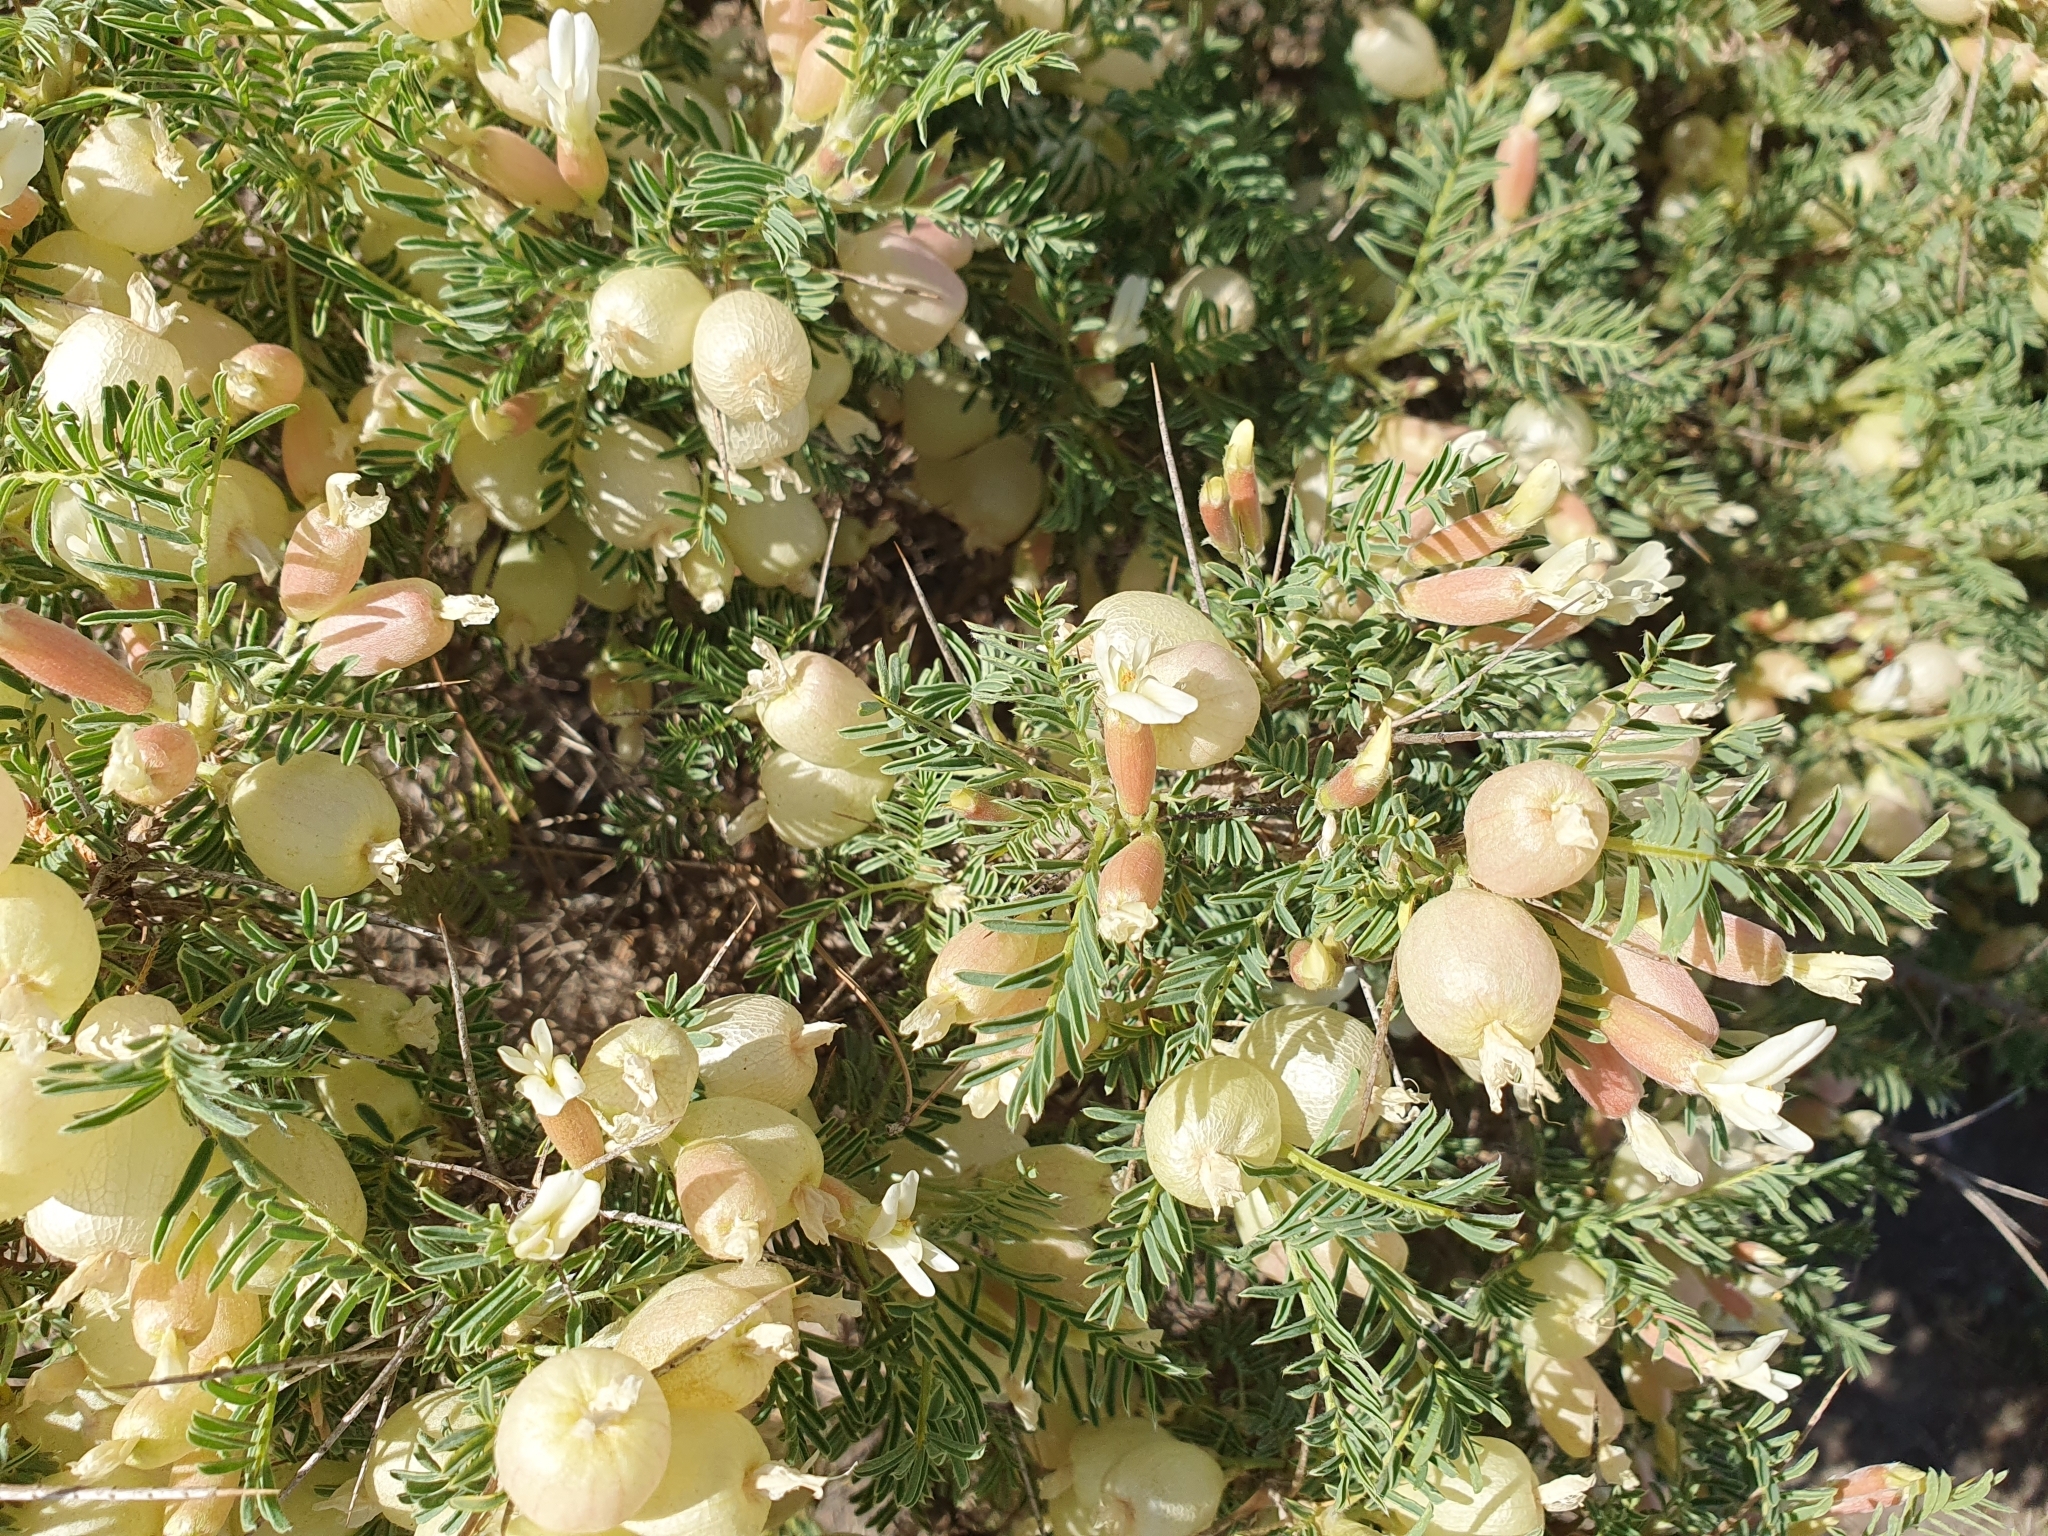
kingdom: Plantae
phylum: Tracheophyta
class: Magnoliopsida
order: Fabales
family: Fabaceae
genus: Astragalus
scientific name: Astragalus armatus
